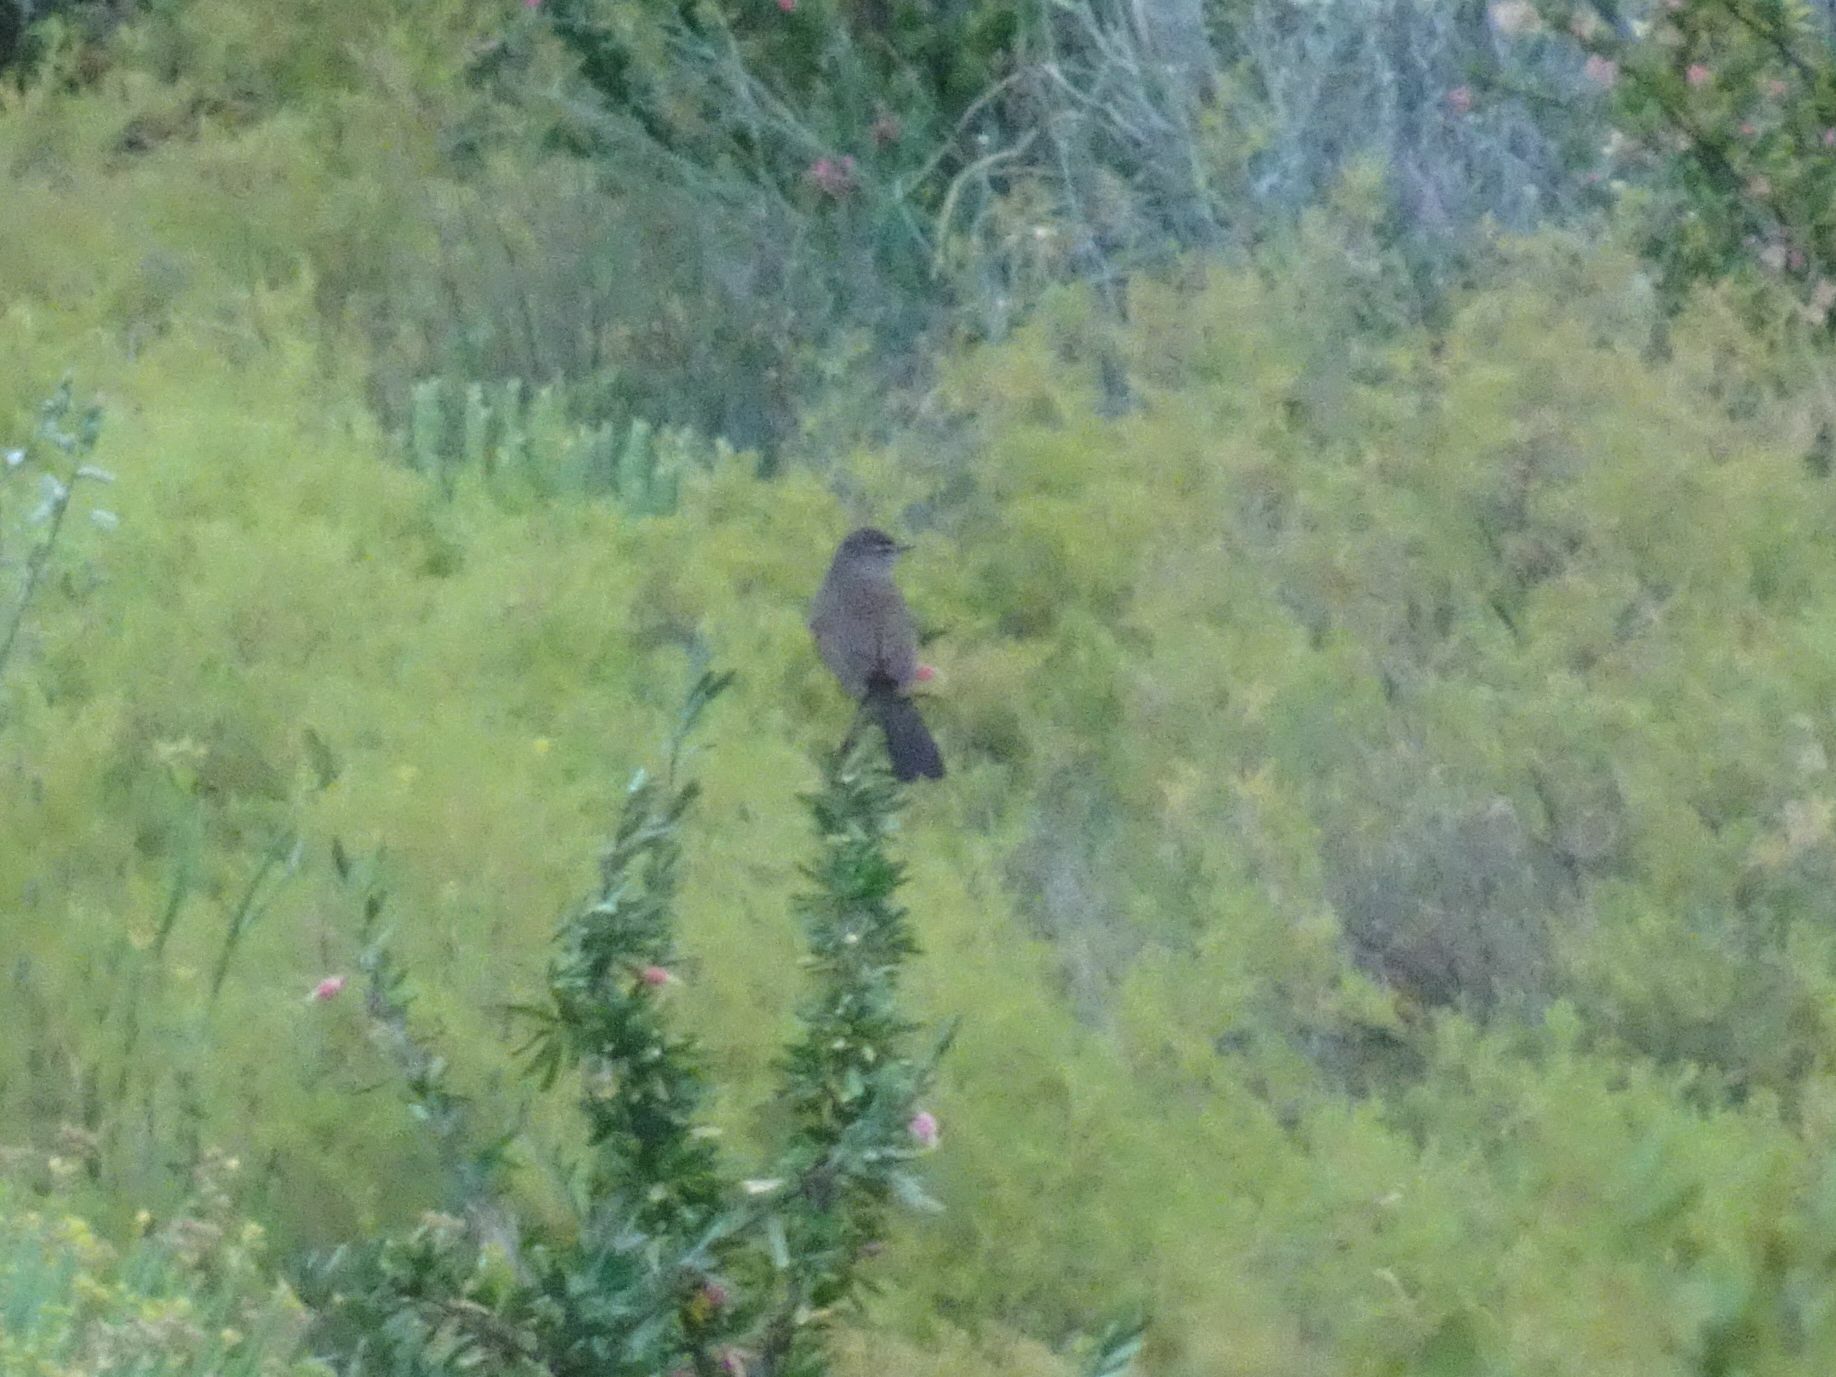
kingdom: Animalia
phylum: Chordata
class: Aves
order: Passeriformes
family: Muscicapidae
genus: Erythropygia
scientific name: Erythropygia coryphoeus
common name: Karoo scrub robin
